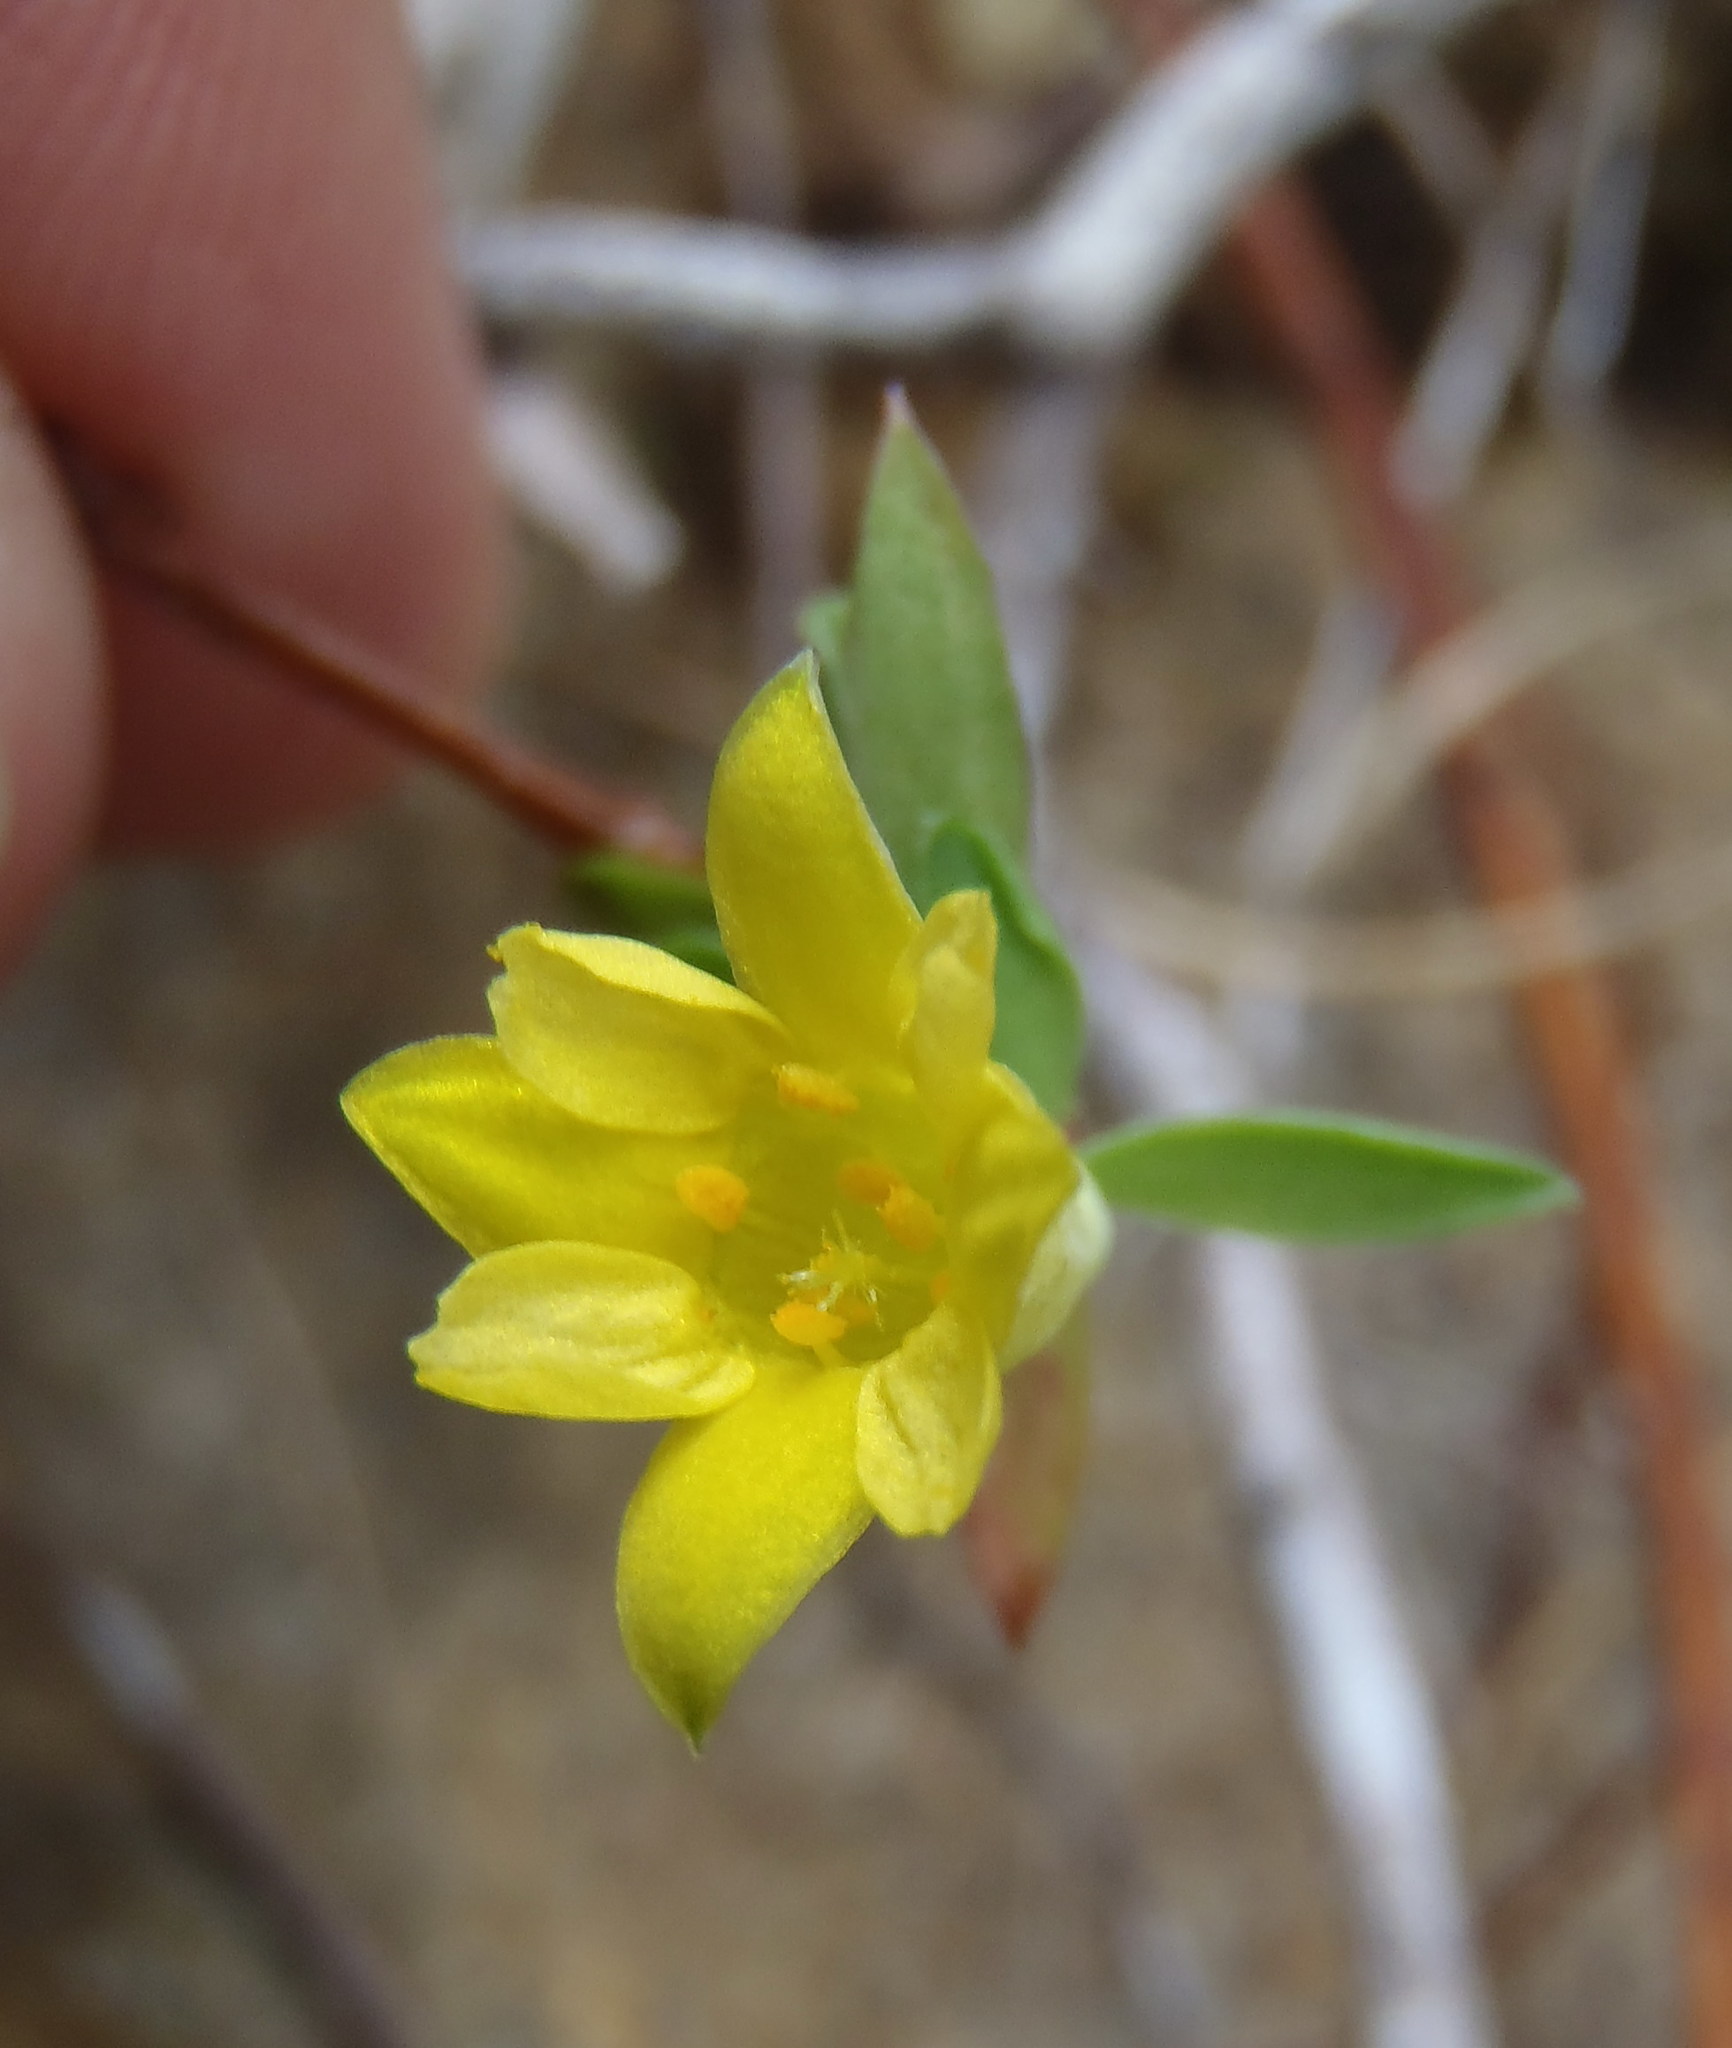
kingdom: Plantae
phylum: Tracheophyta
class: Magnoliopsida
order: Malvales
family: Thymelaeaceae
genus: Gnidia
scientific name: Gnidia juniperifolia
